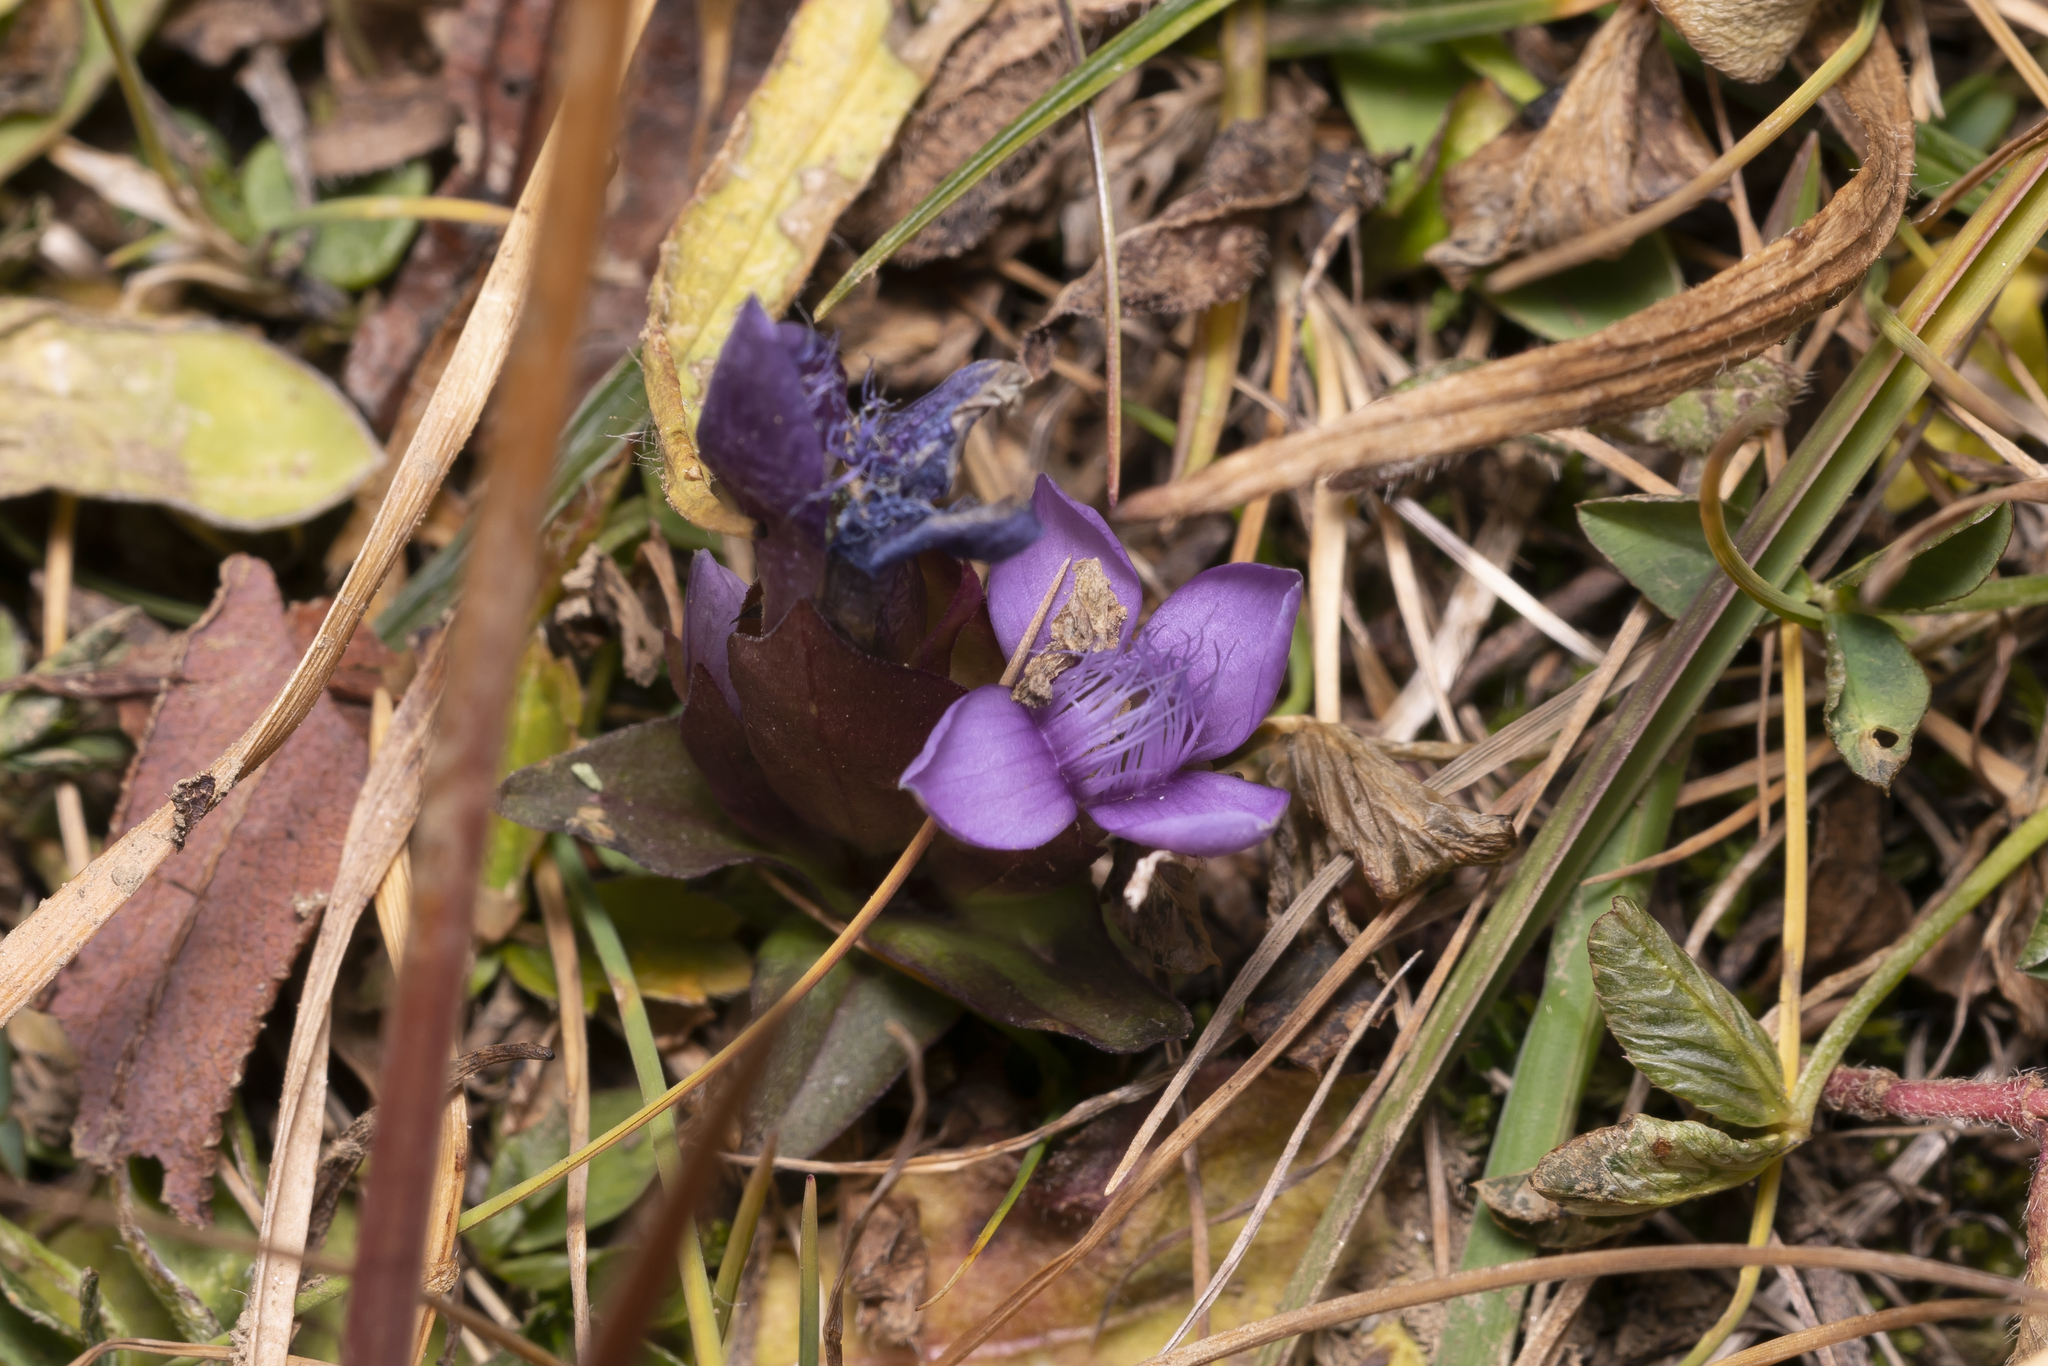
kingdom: Plantae
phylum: Tracheophyta
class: Magnoliopsida
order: Gentianales
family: Gentianaceae
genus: Gentianella
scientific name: Gentianella campestris
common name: Field gentian
